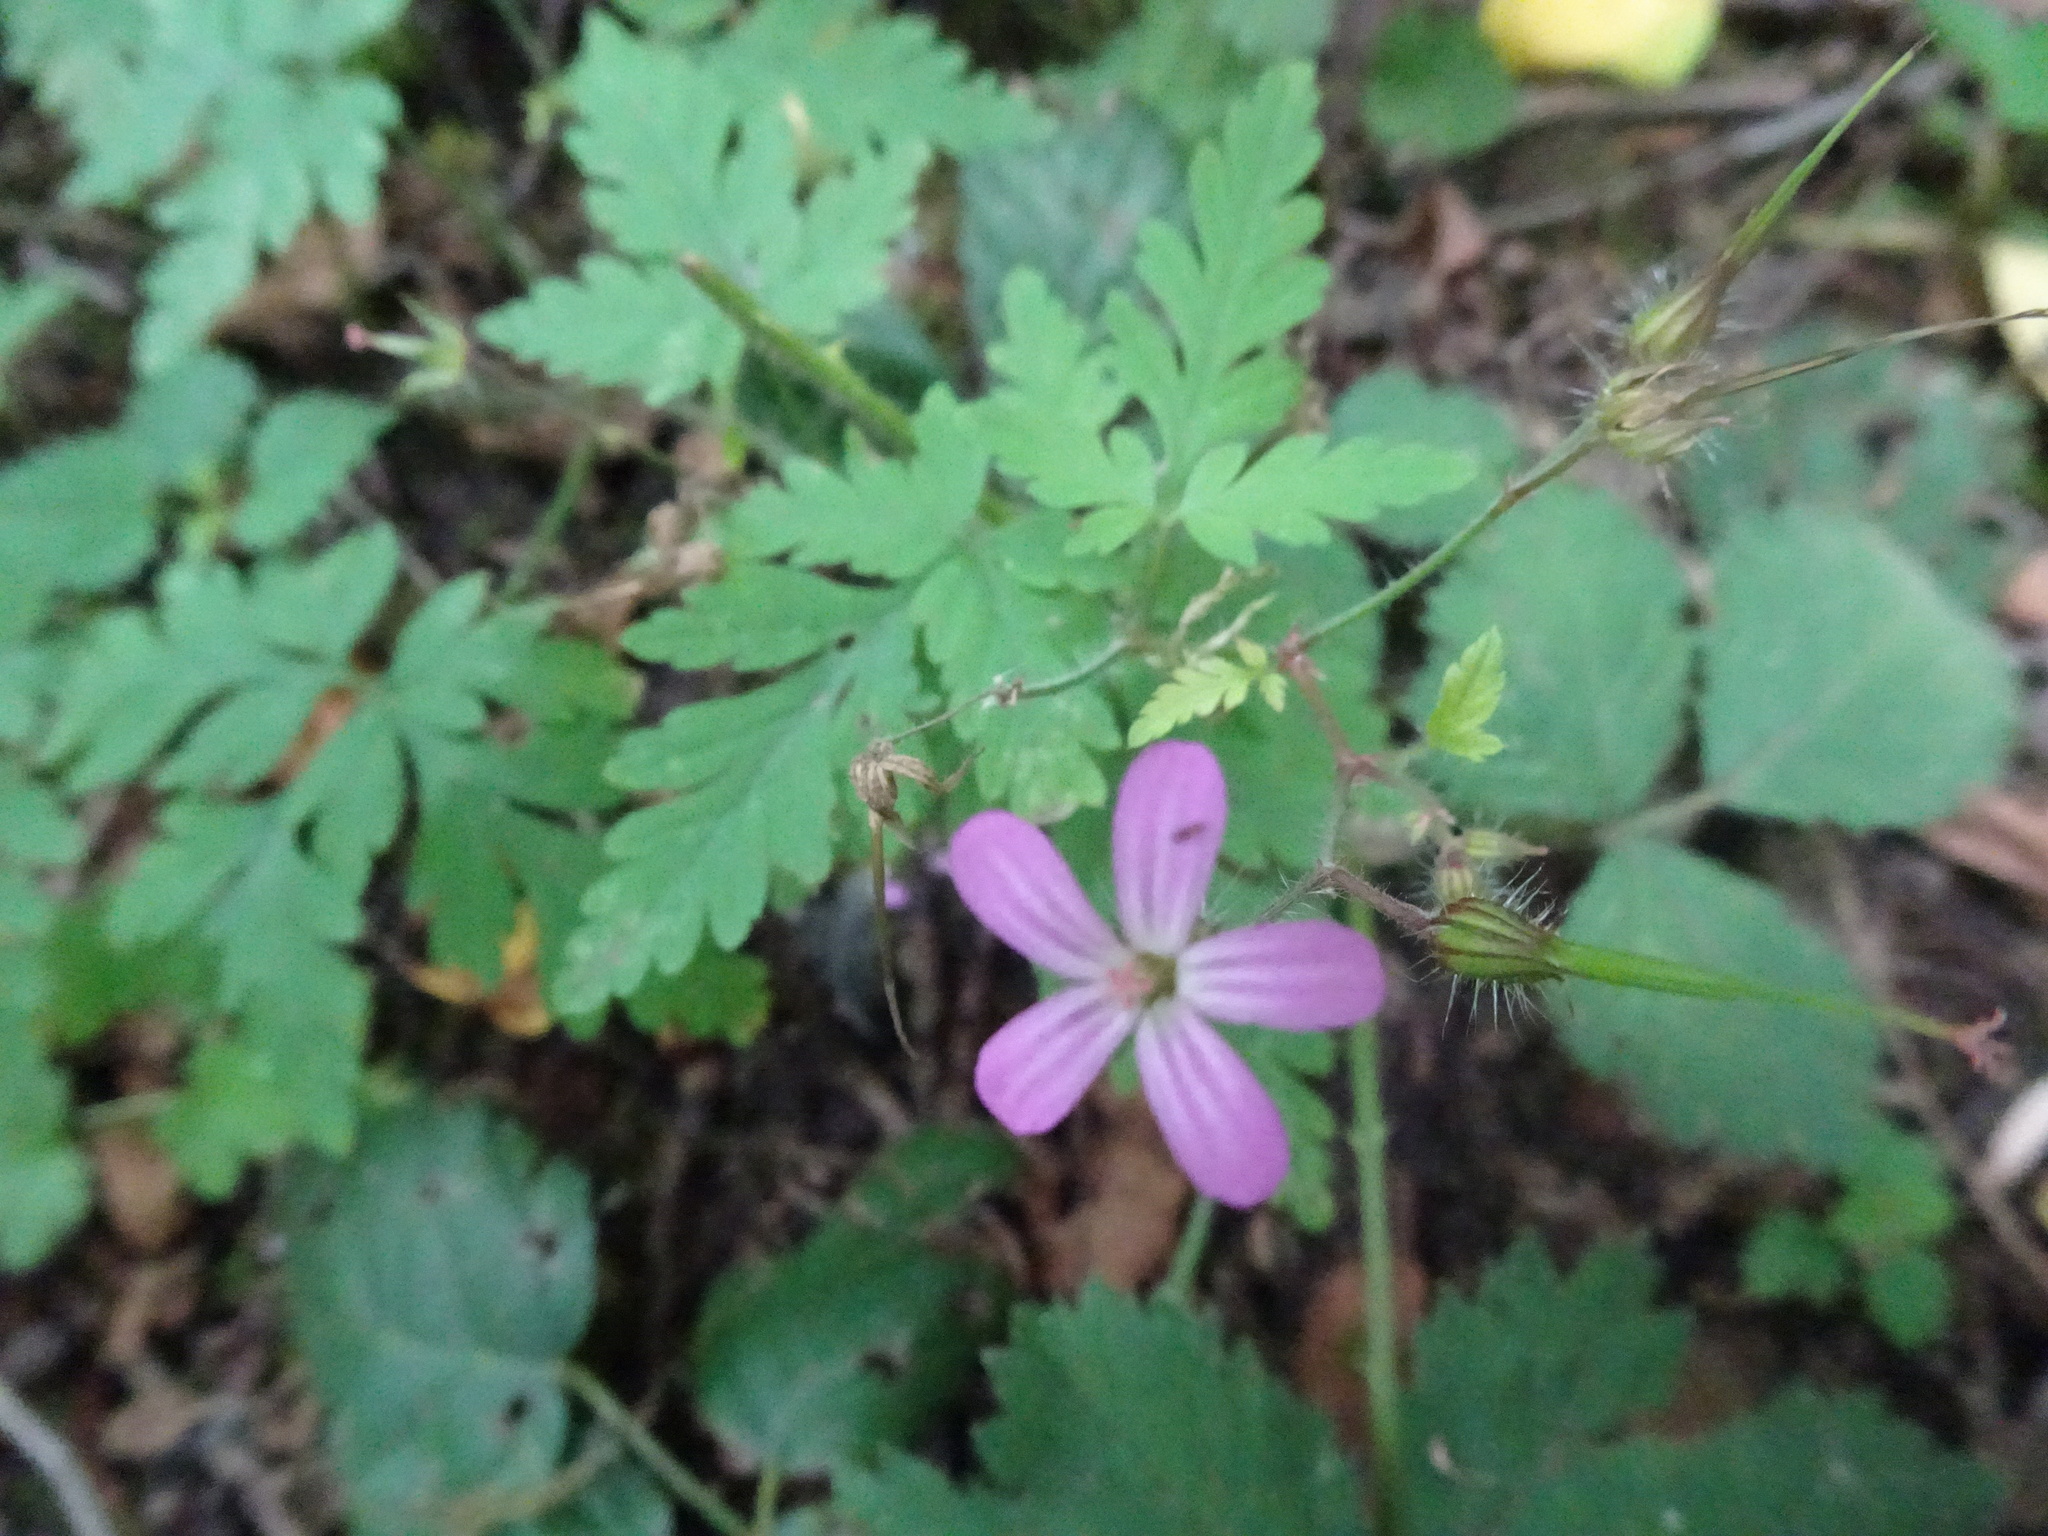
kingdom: Plantae
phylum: Tracheophyta
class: Magnoliopsida
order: Geraniales
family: Geraniaceae
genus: Geranium
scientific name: Geranium robertianum
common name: Herb-robert
